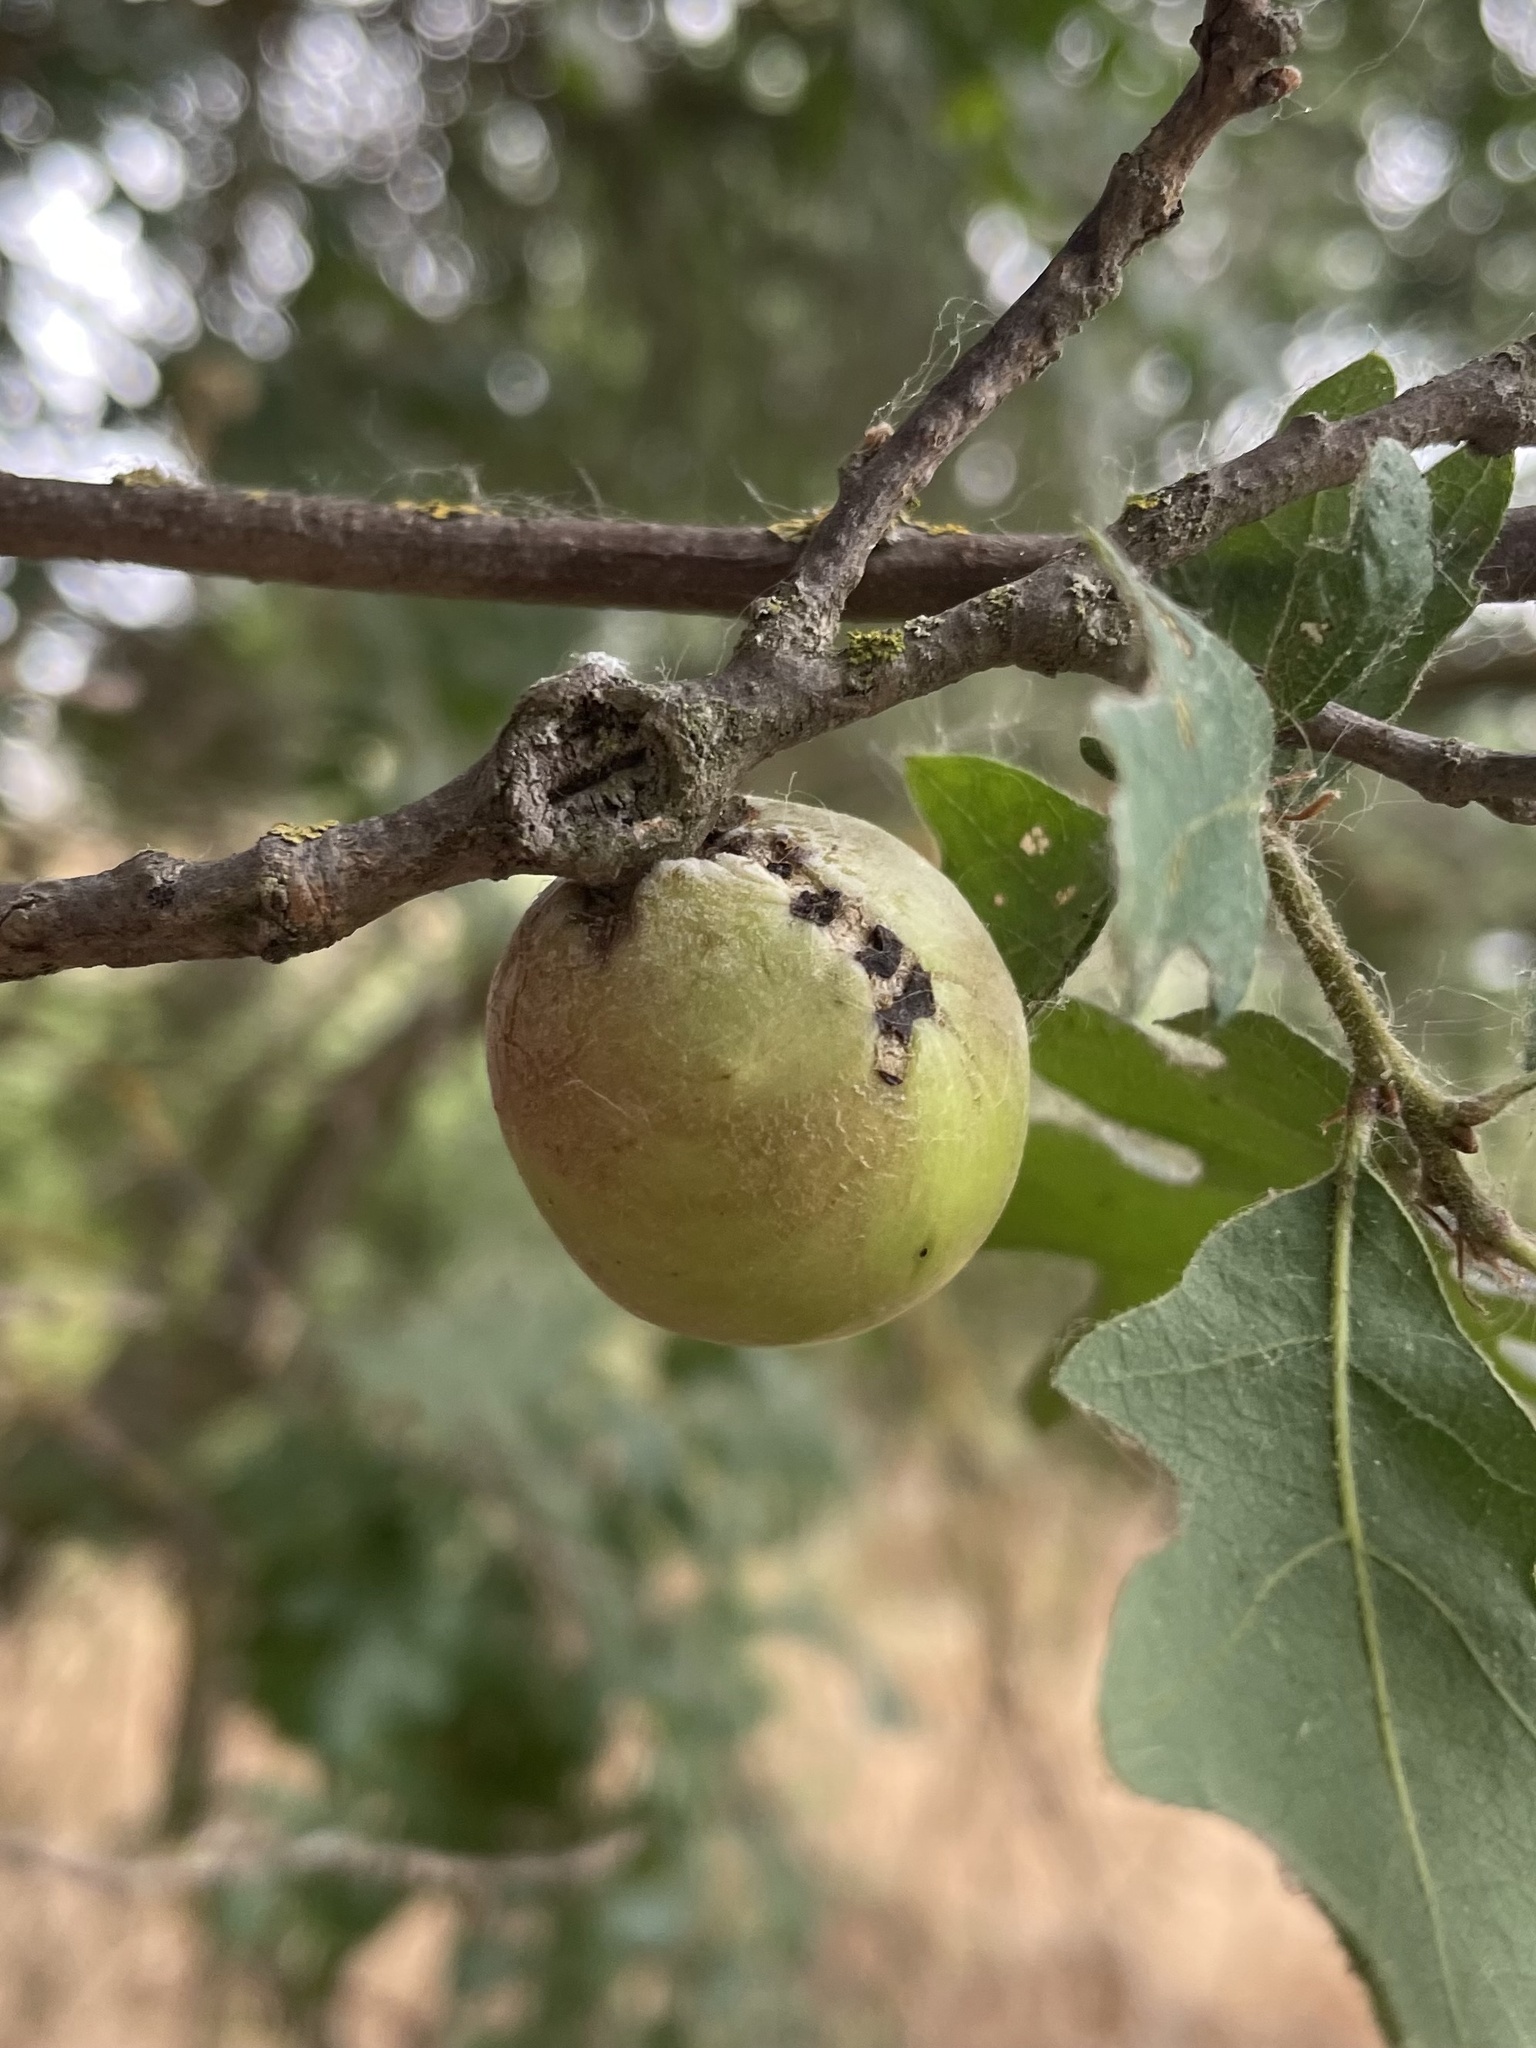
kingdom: Animalia
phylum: Arthropoda
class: Insecta
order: Hymenoptera
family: Cynipidae
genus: Andricus
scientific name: Andricus quercuscalifornicus
